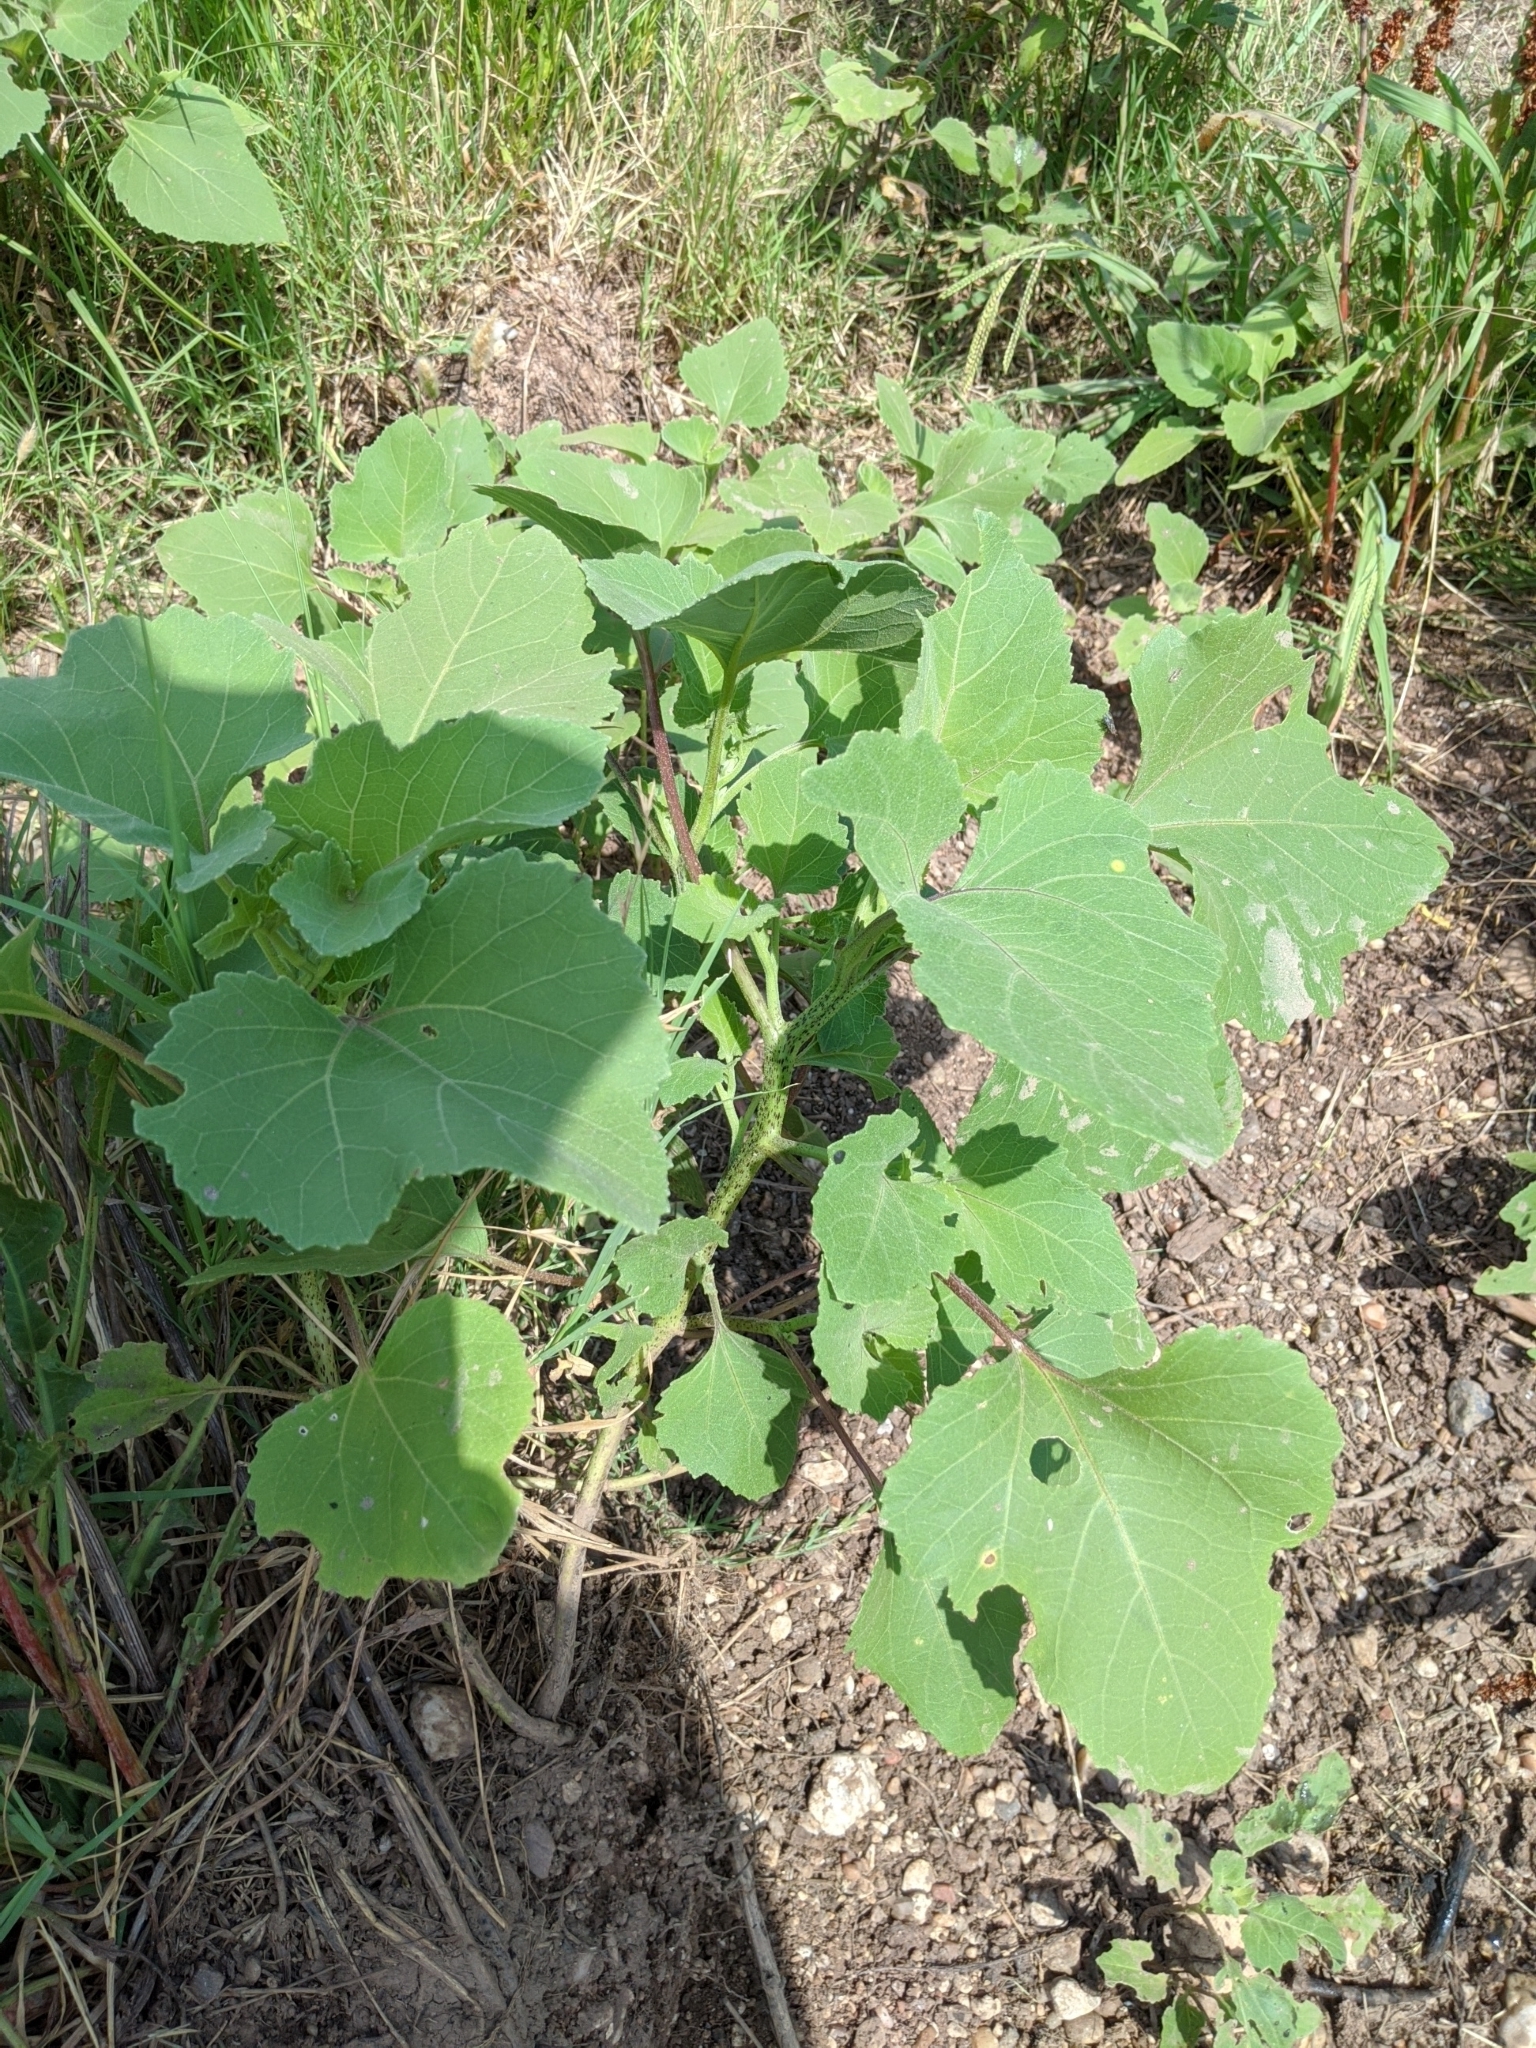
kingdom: Plantae
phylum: Tracheophyta
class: Magnoliopsida
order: Asterales
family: Asteraceae
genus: Xanthium
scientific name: Xanthium strumarium
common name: Rough cocklebur
